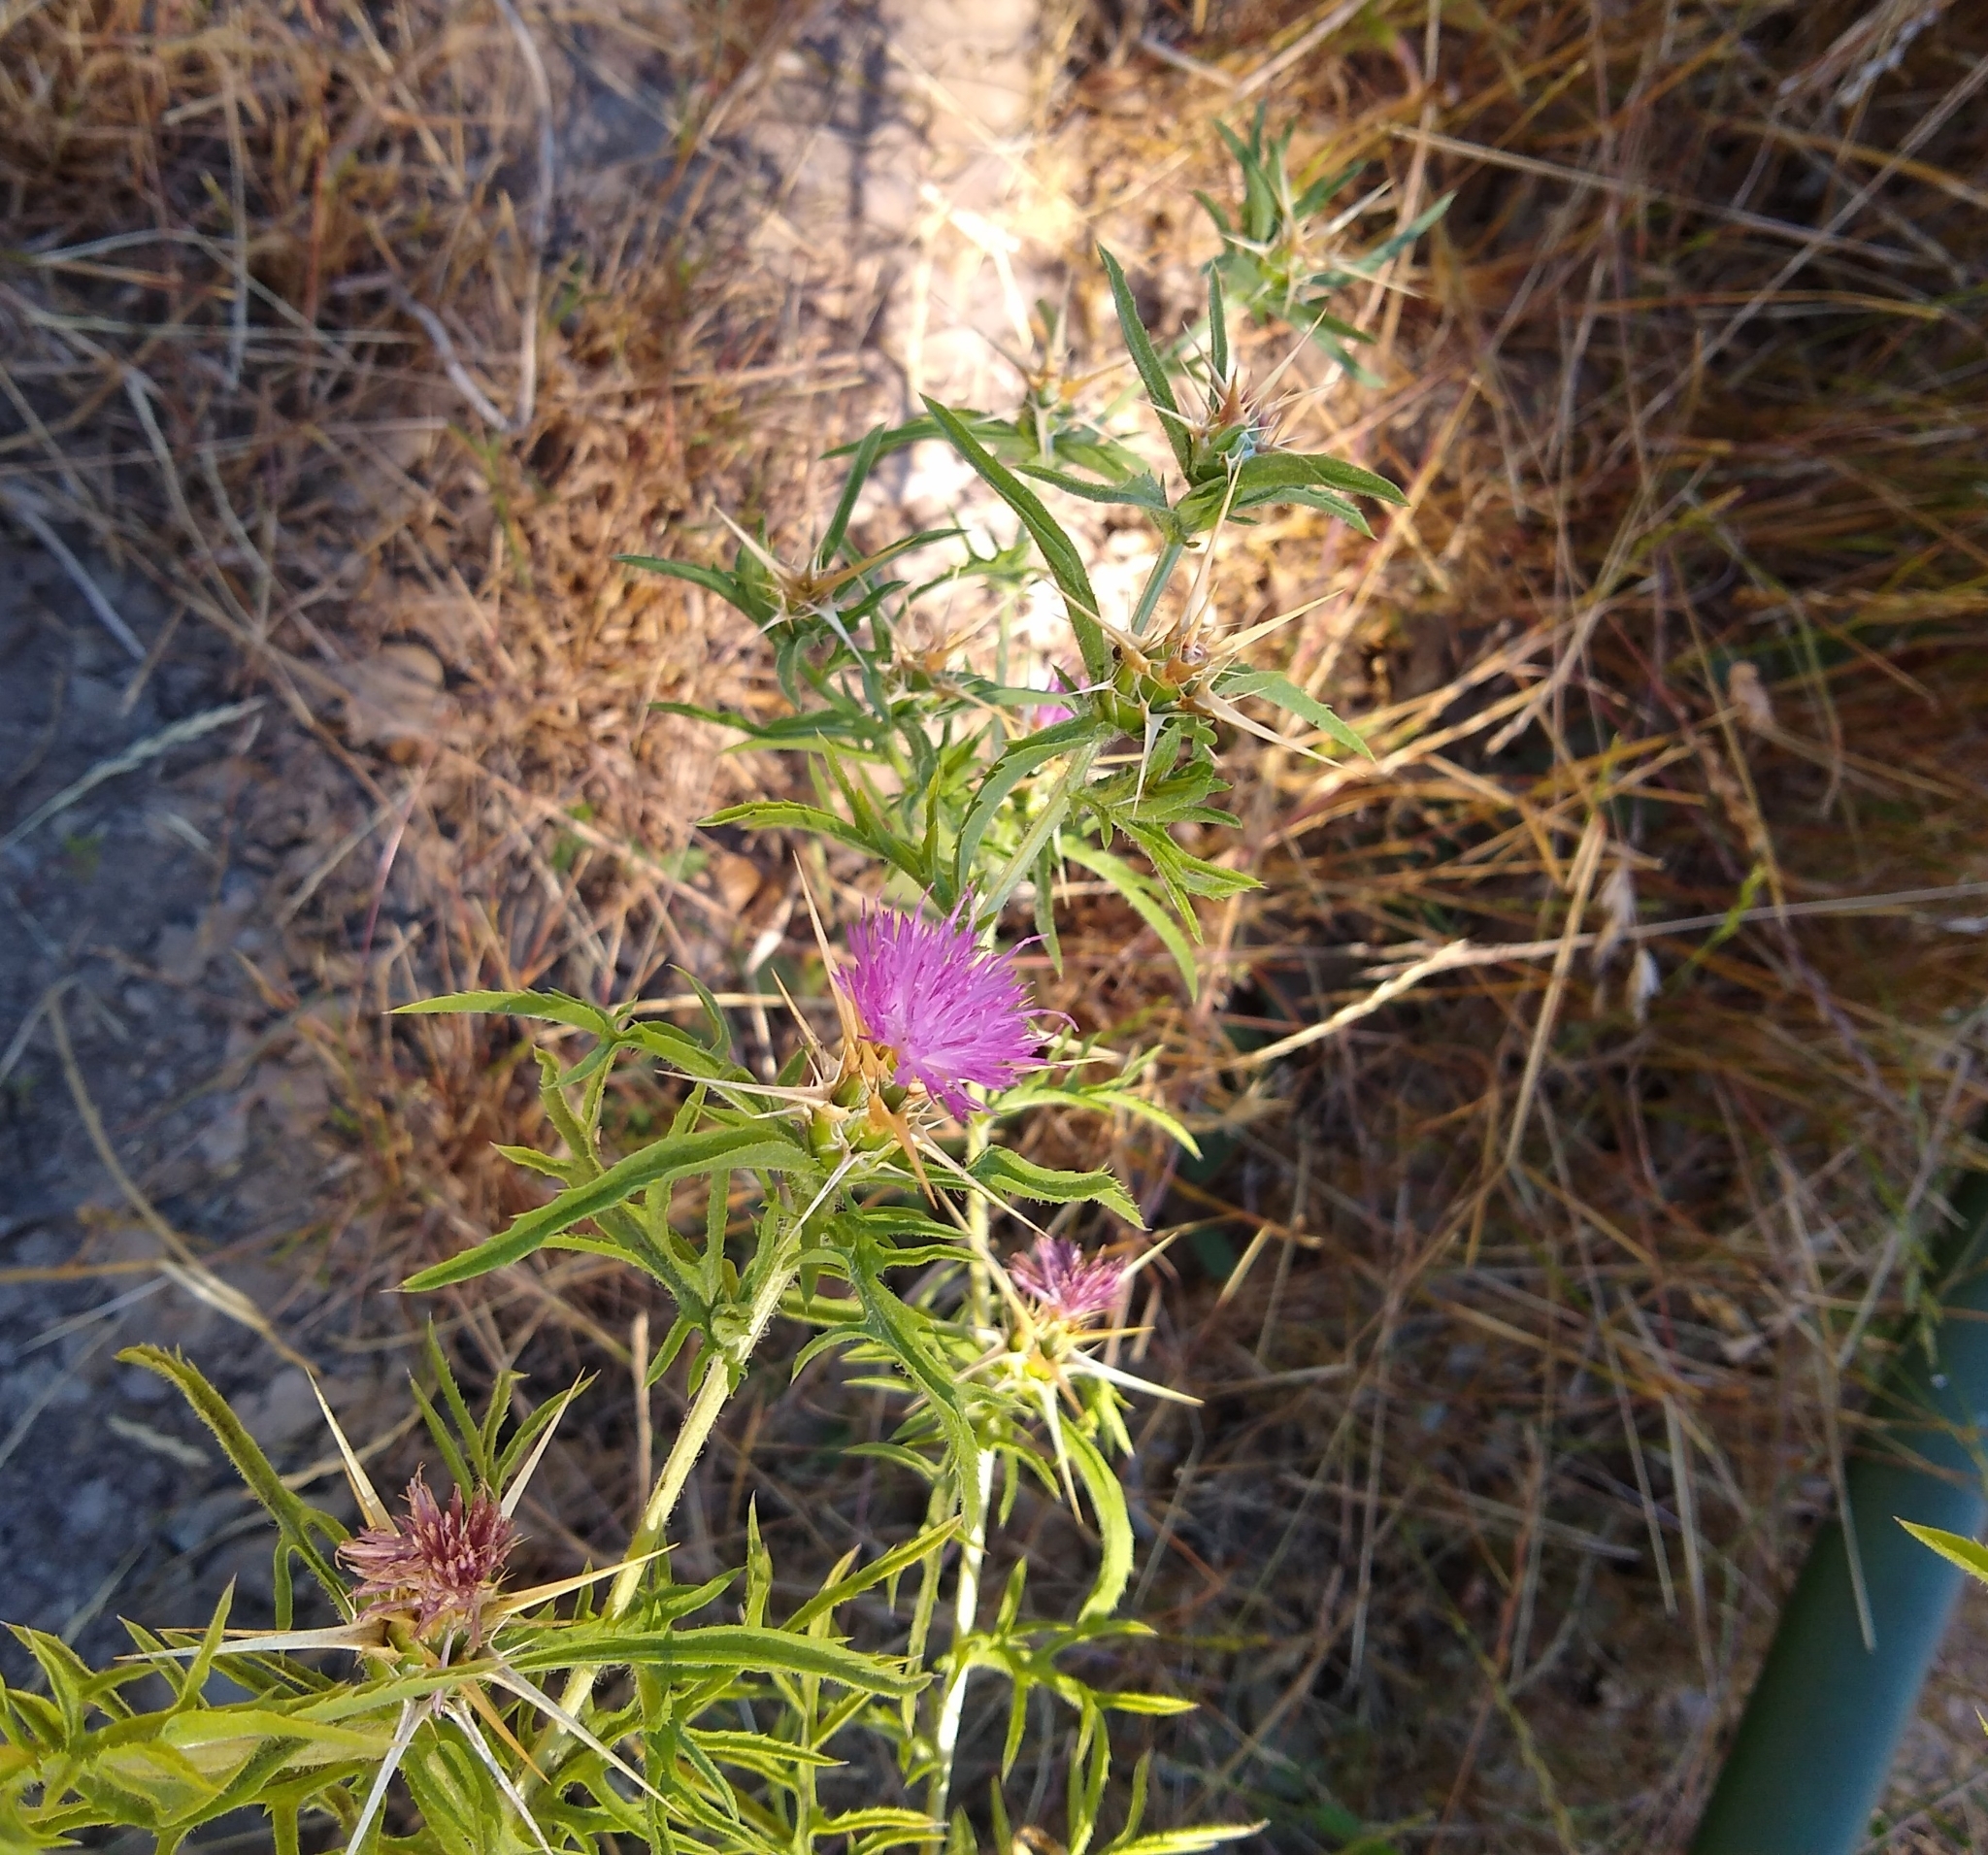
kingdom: Plantae
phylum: Tracheophyta
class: Magnoliopsida
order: Asterales
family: Asteraceae
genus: Centaurea
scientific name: Centaurea calcitrapa
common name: Red star-thistle
